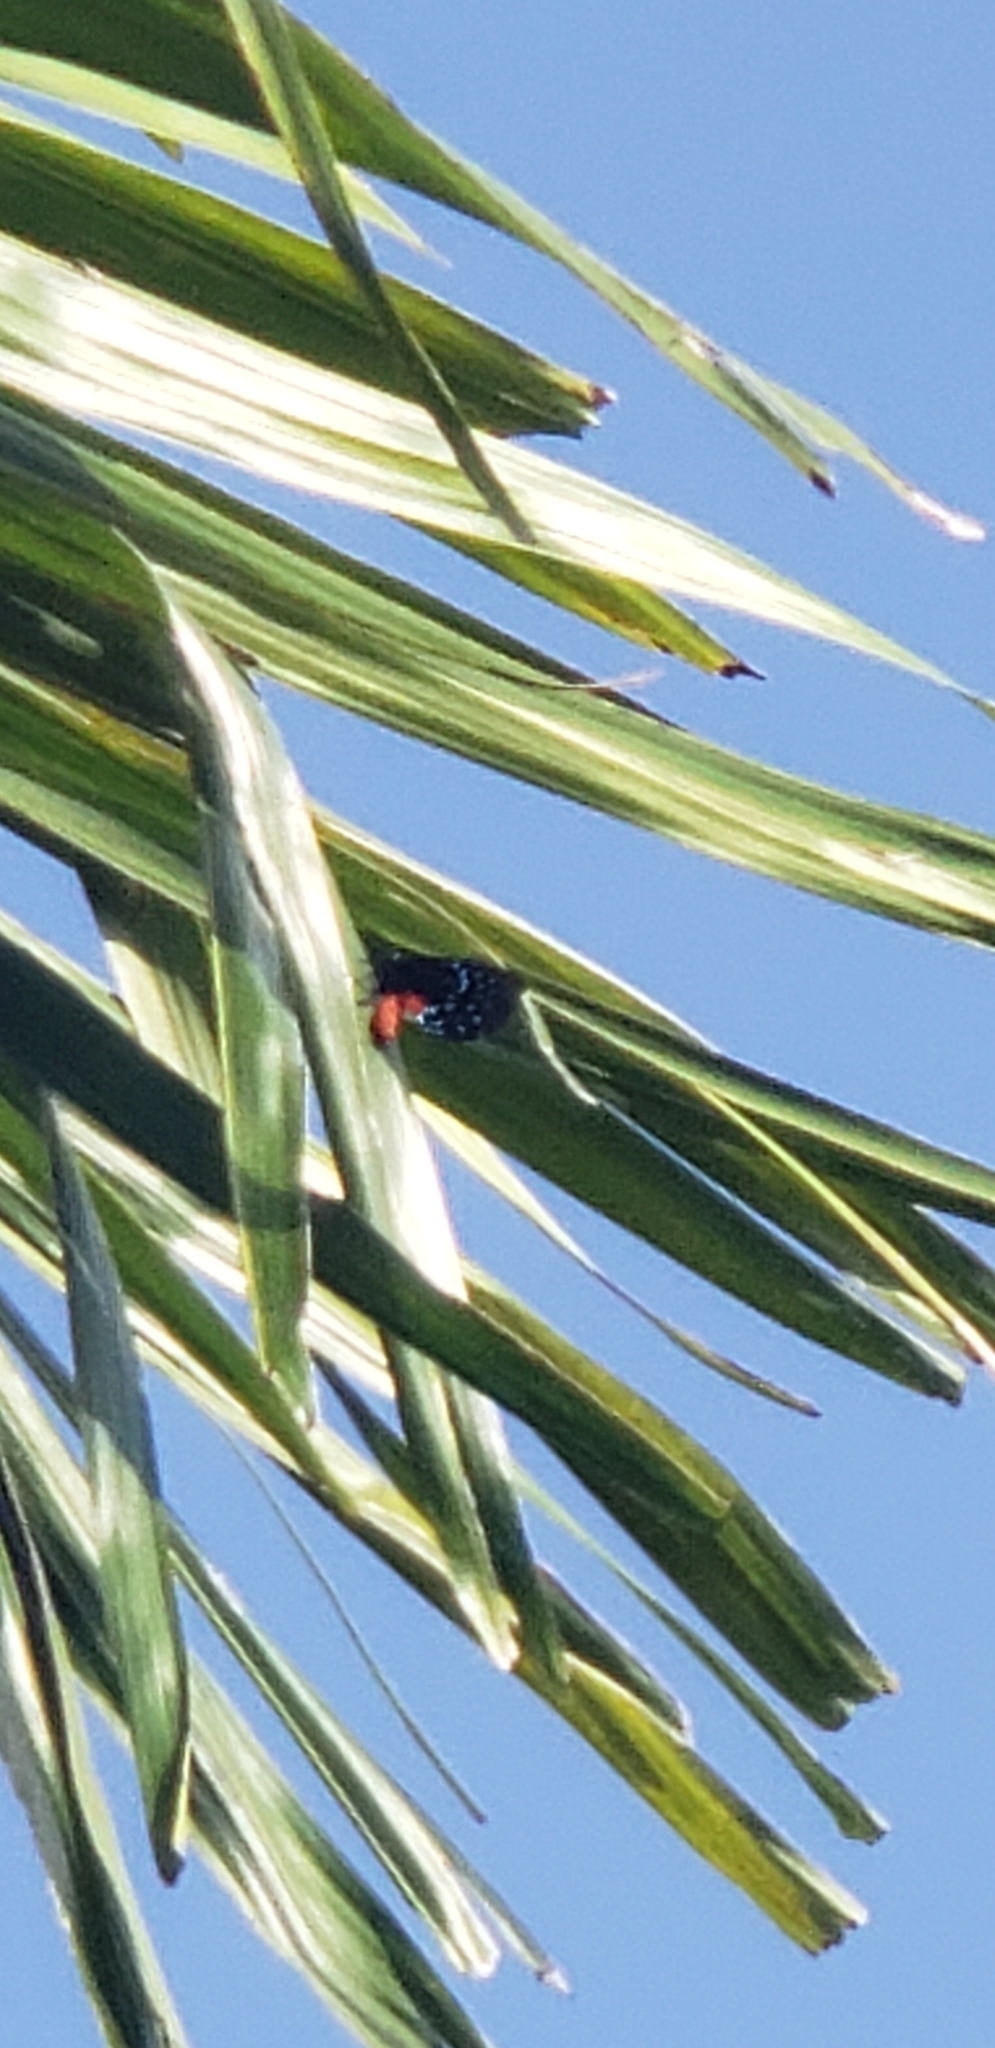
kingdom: Animalia
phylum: Arthropoda
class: Insecta
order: Lepidoptera
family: Lycaenidae
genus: Eumaeus
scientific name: Eumaeus atala
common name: Atala
